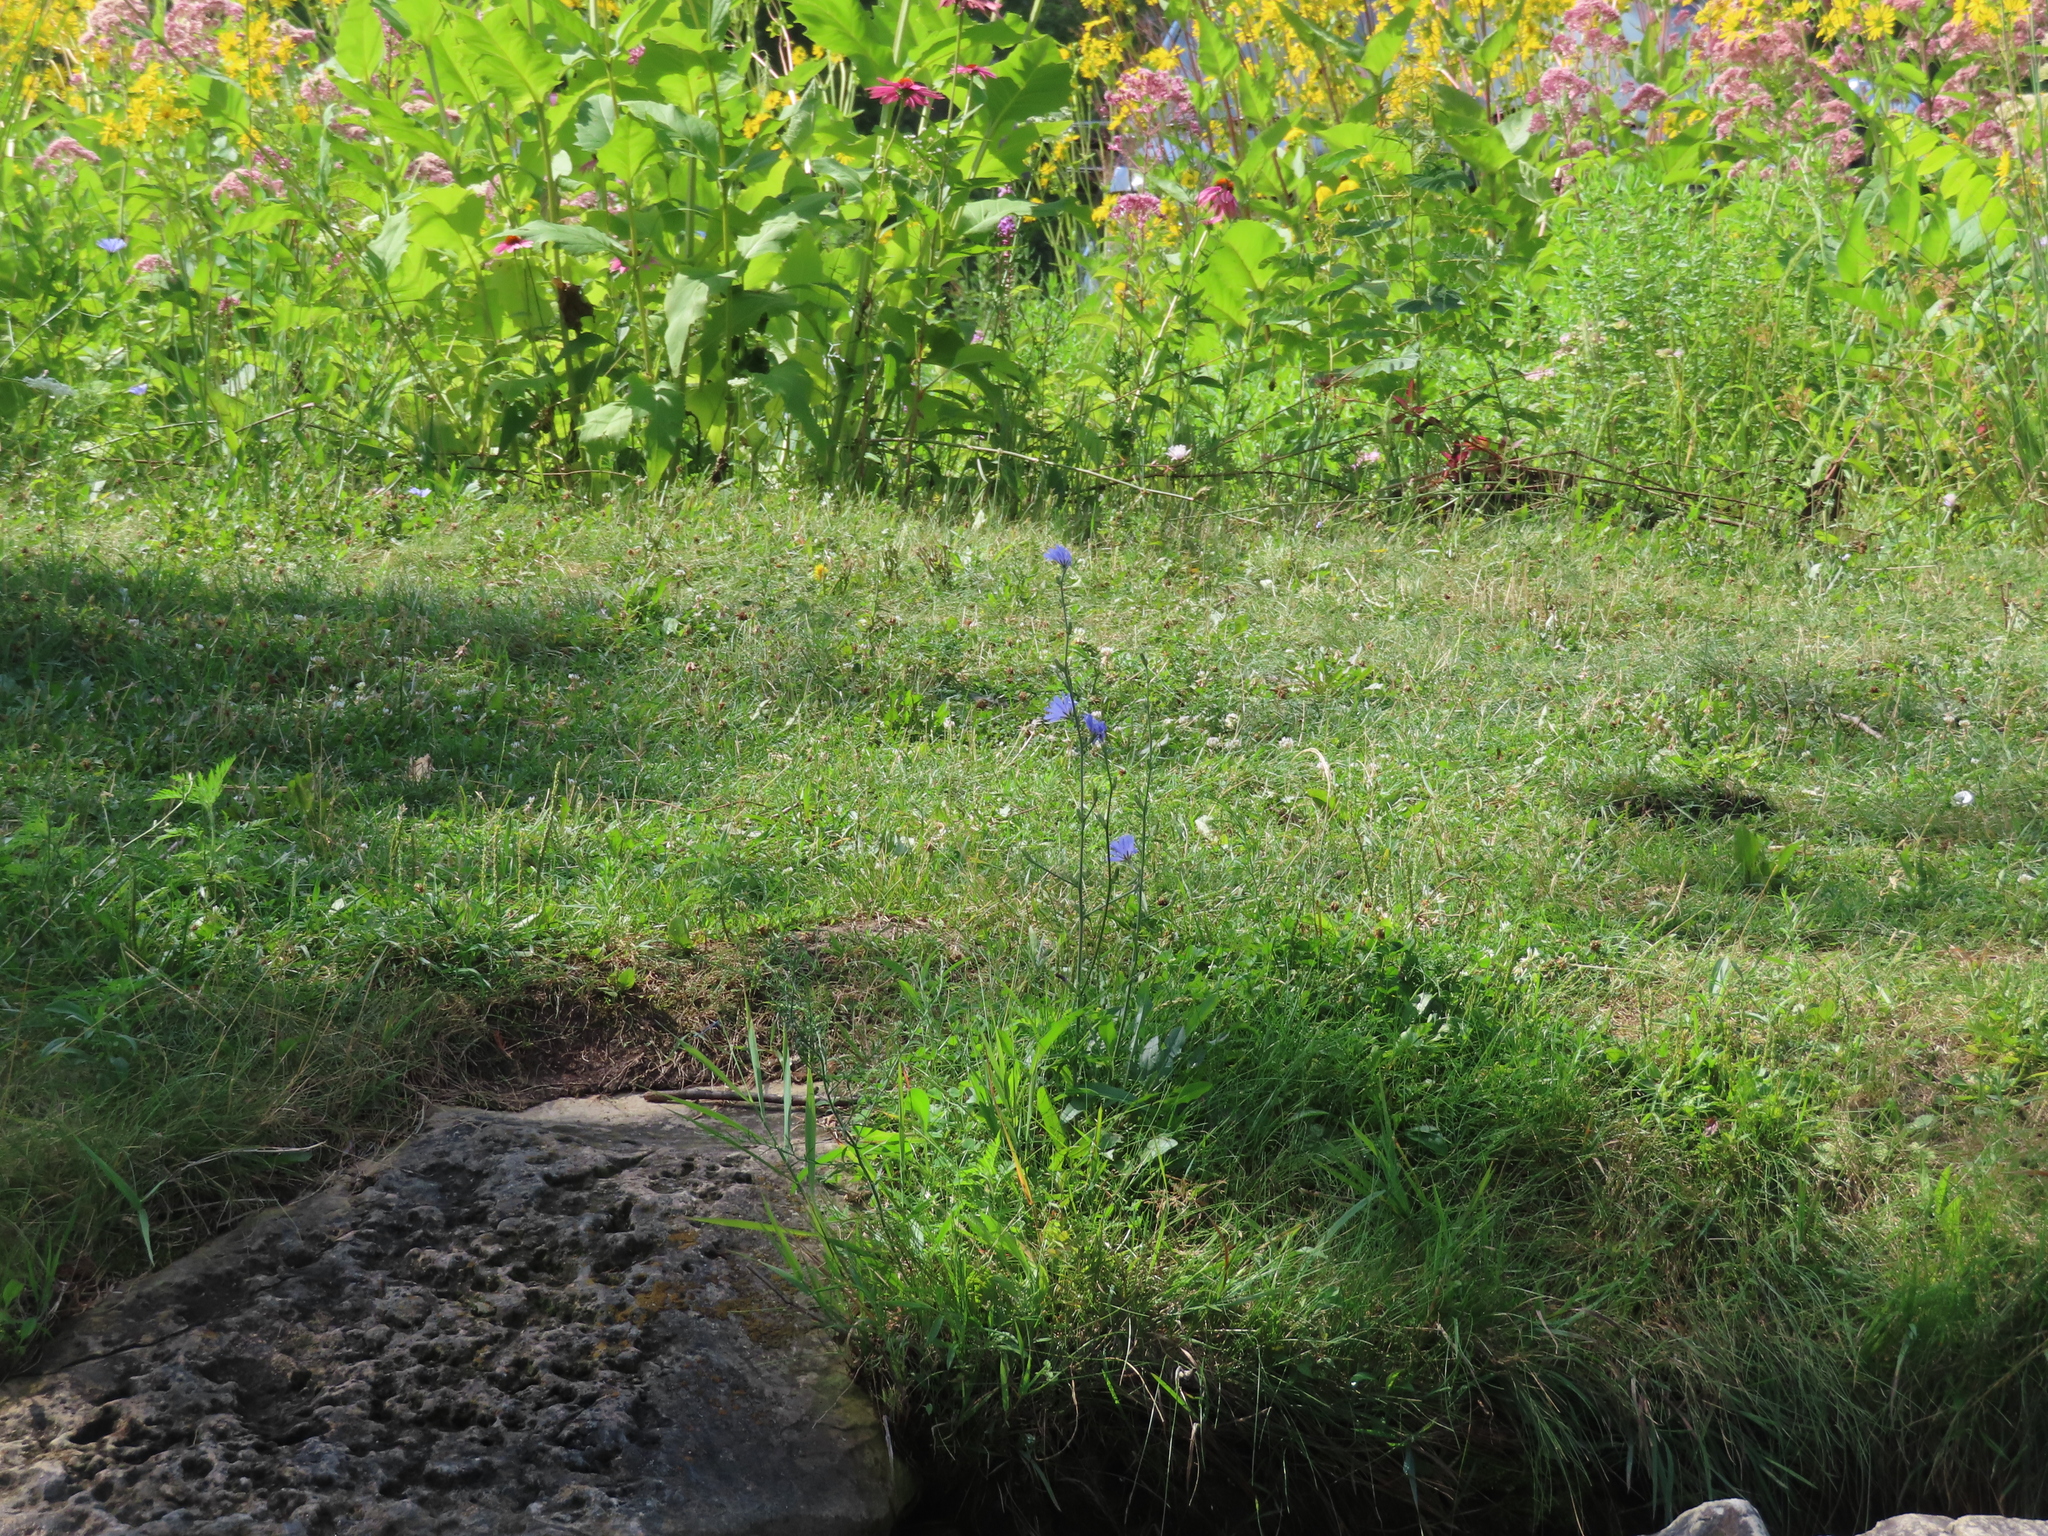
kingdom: Plantae
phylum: Tracheophyta
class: Magnoliopsida
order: Asterales
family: Asteraceae
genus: Cichorium
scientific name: Cichorium intybus
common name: Chicory
